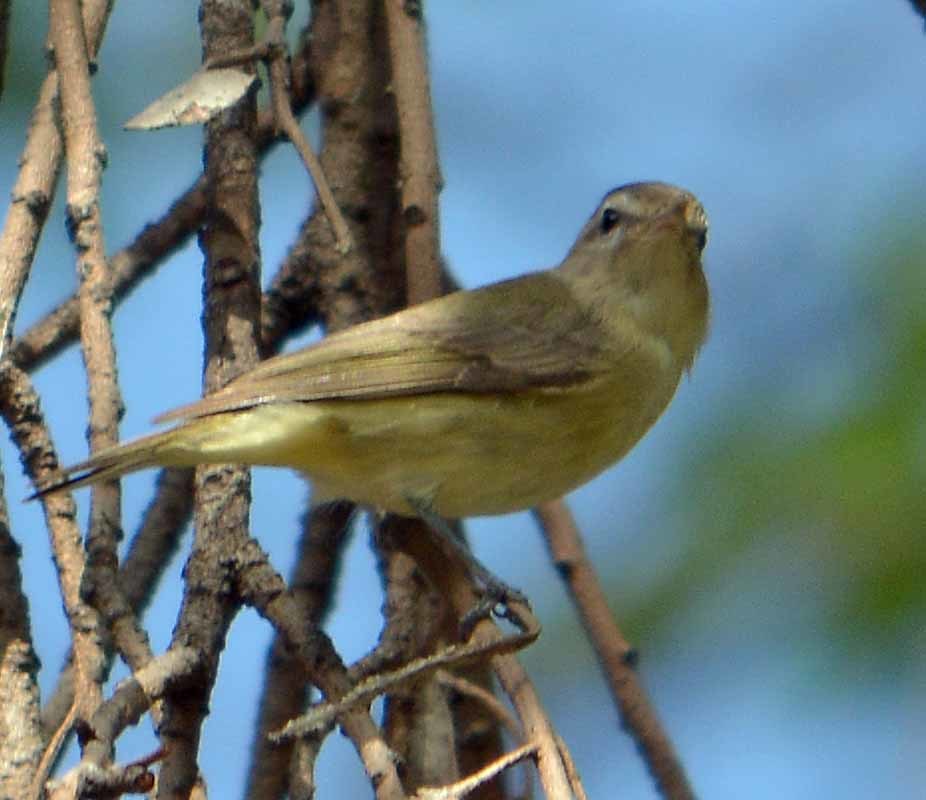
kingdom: Animalia
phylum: Chordata
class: Aves
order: Passeriformes
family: Vireonidae
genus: Vireo
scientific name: Vireo gilvus
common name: Warbling vireo
